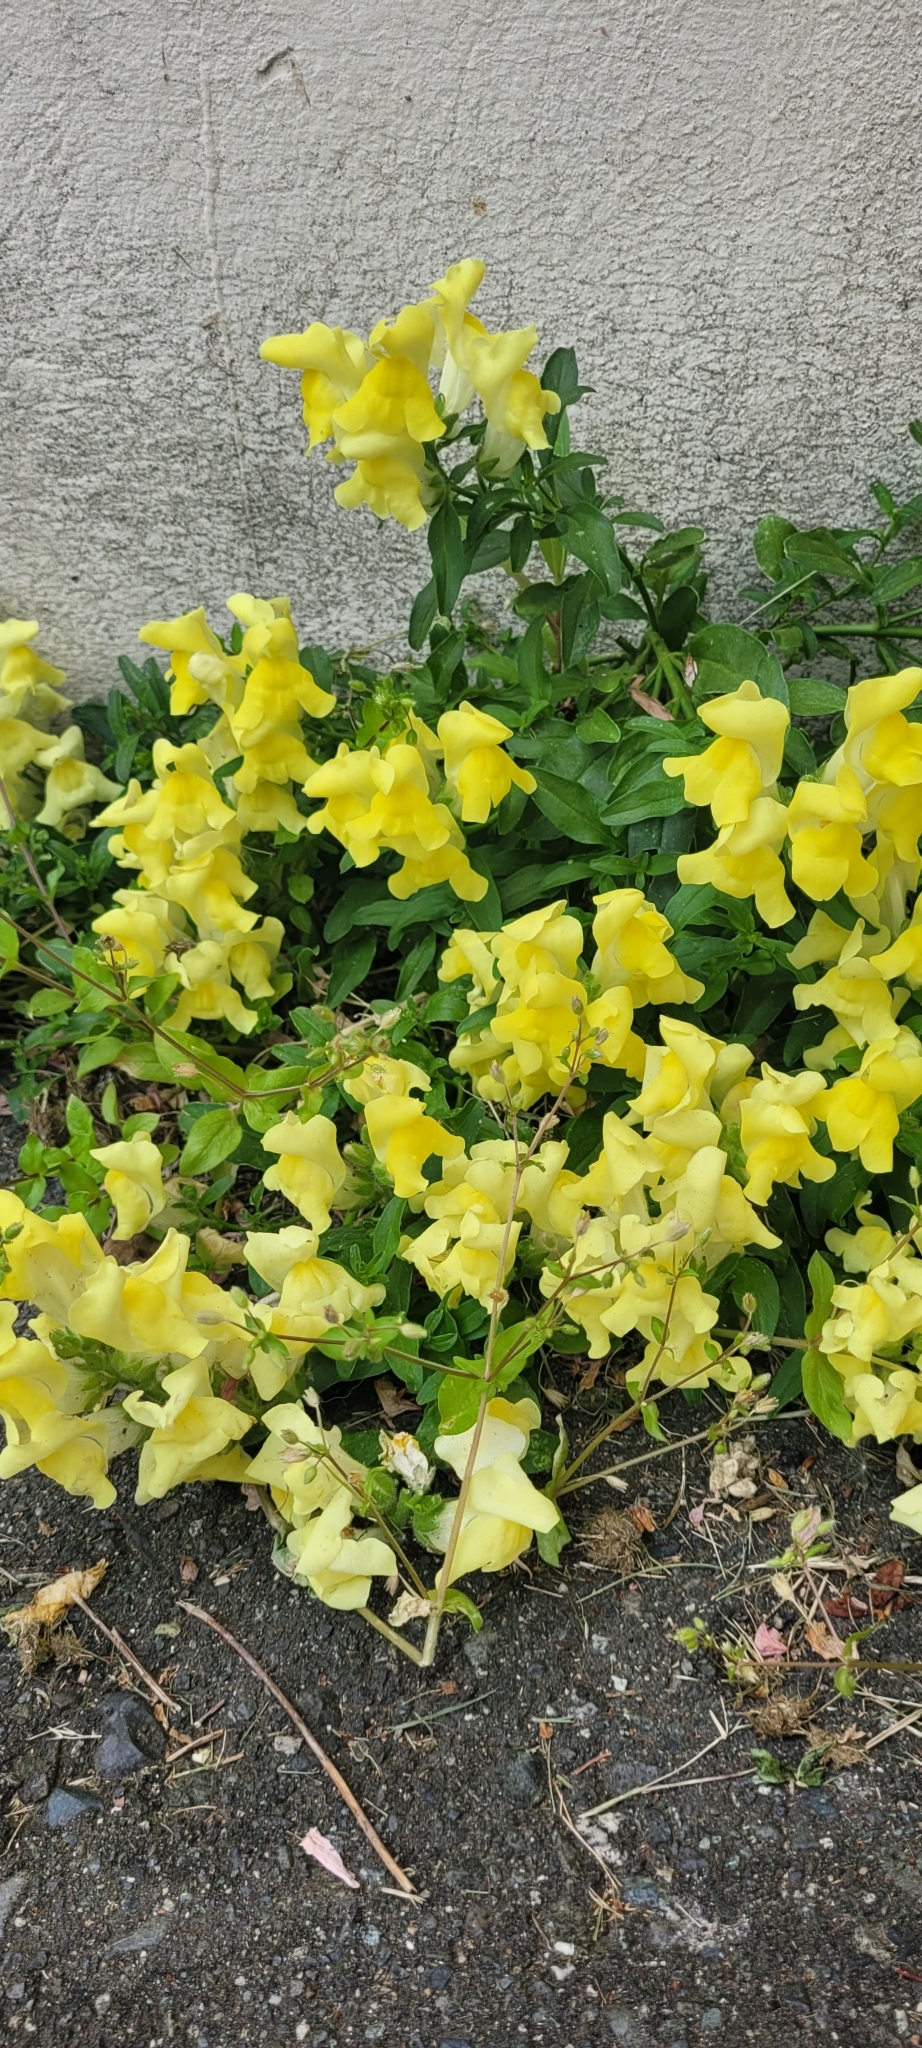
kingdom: Plantae
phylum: Tracheophyta
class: Magnoliopsida
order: Lamiales
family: Plantaginaceae
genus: Antirrhinum
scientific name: Antirrhinum majus
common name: Snapdragon
